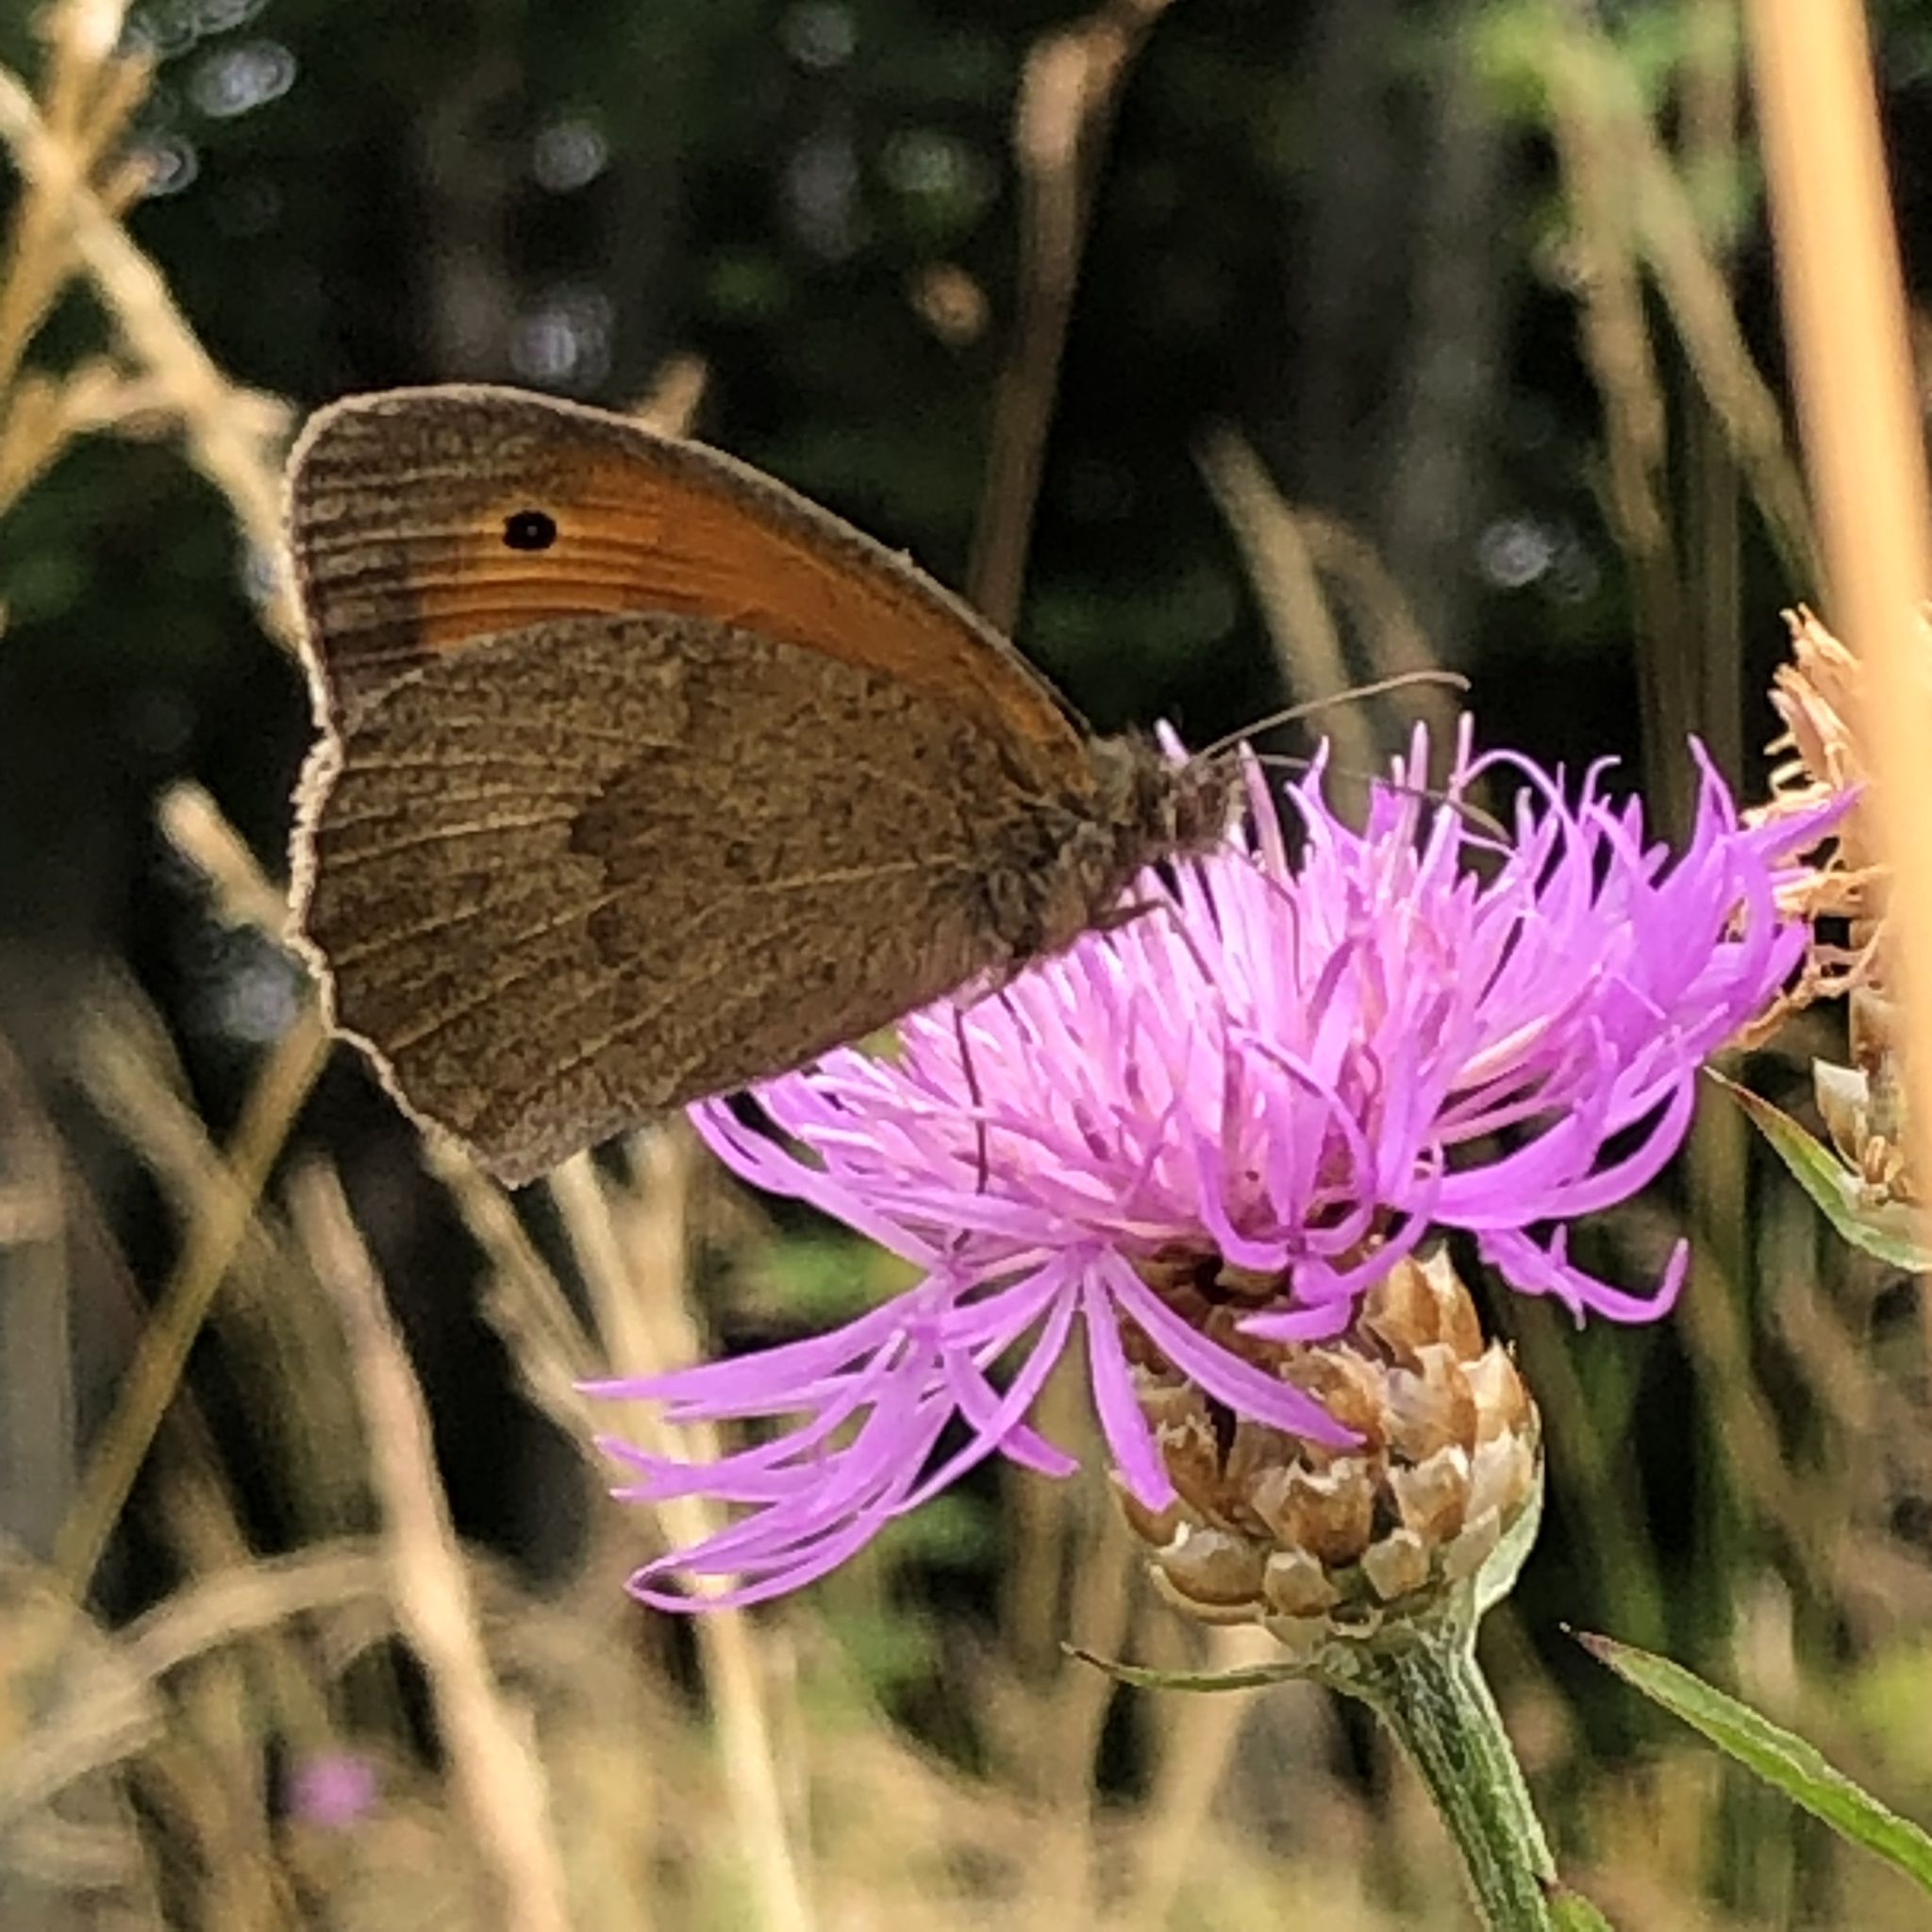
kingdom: Animalia
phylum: Arthropoda
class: Insecta
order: Lepidoptera
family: Nymphalidae
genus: Maniola
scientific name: Maniola jurtina
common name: Meadow brown
